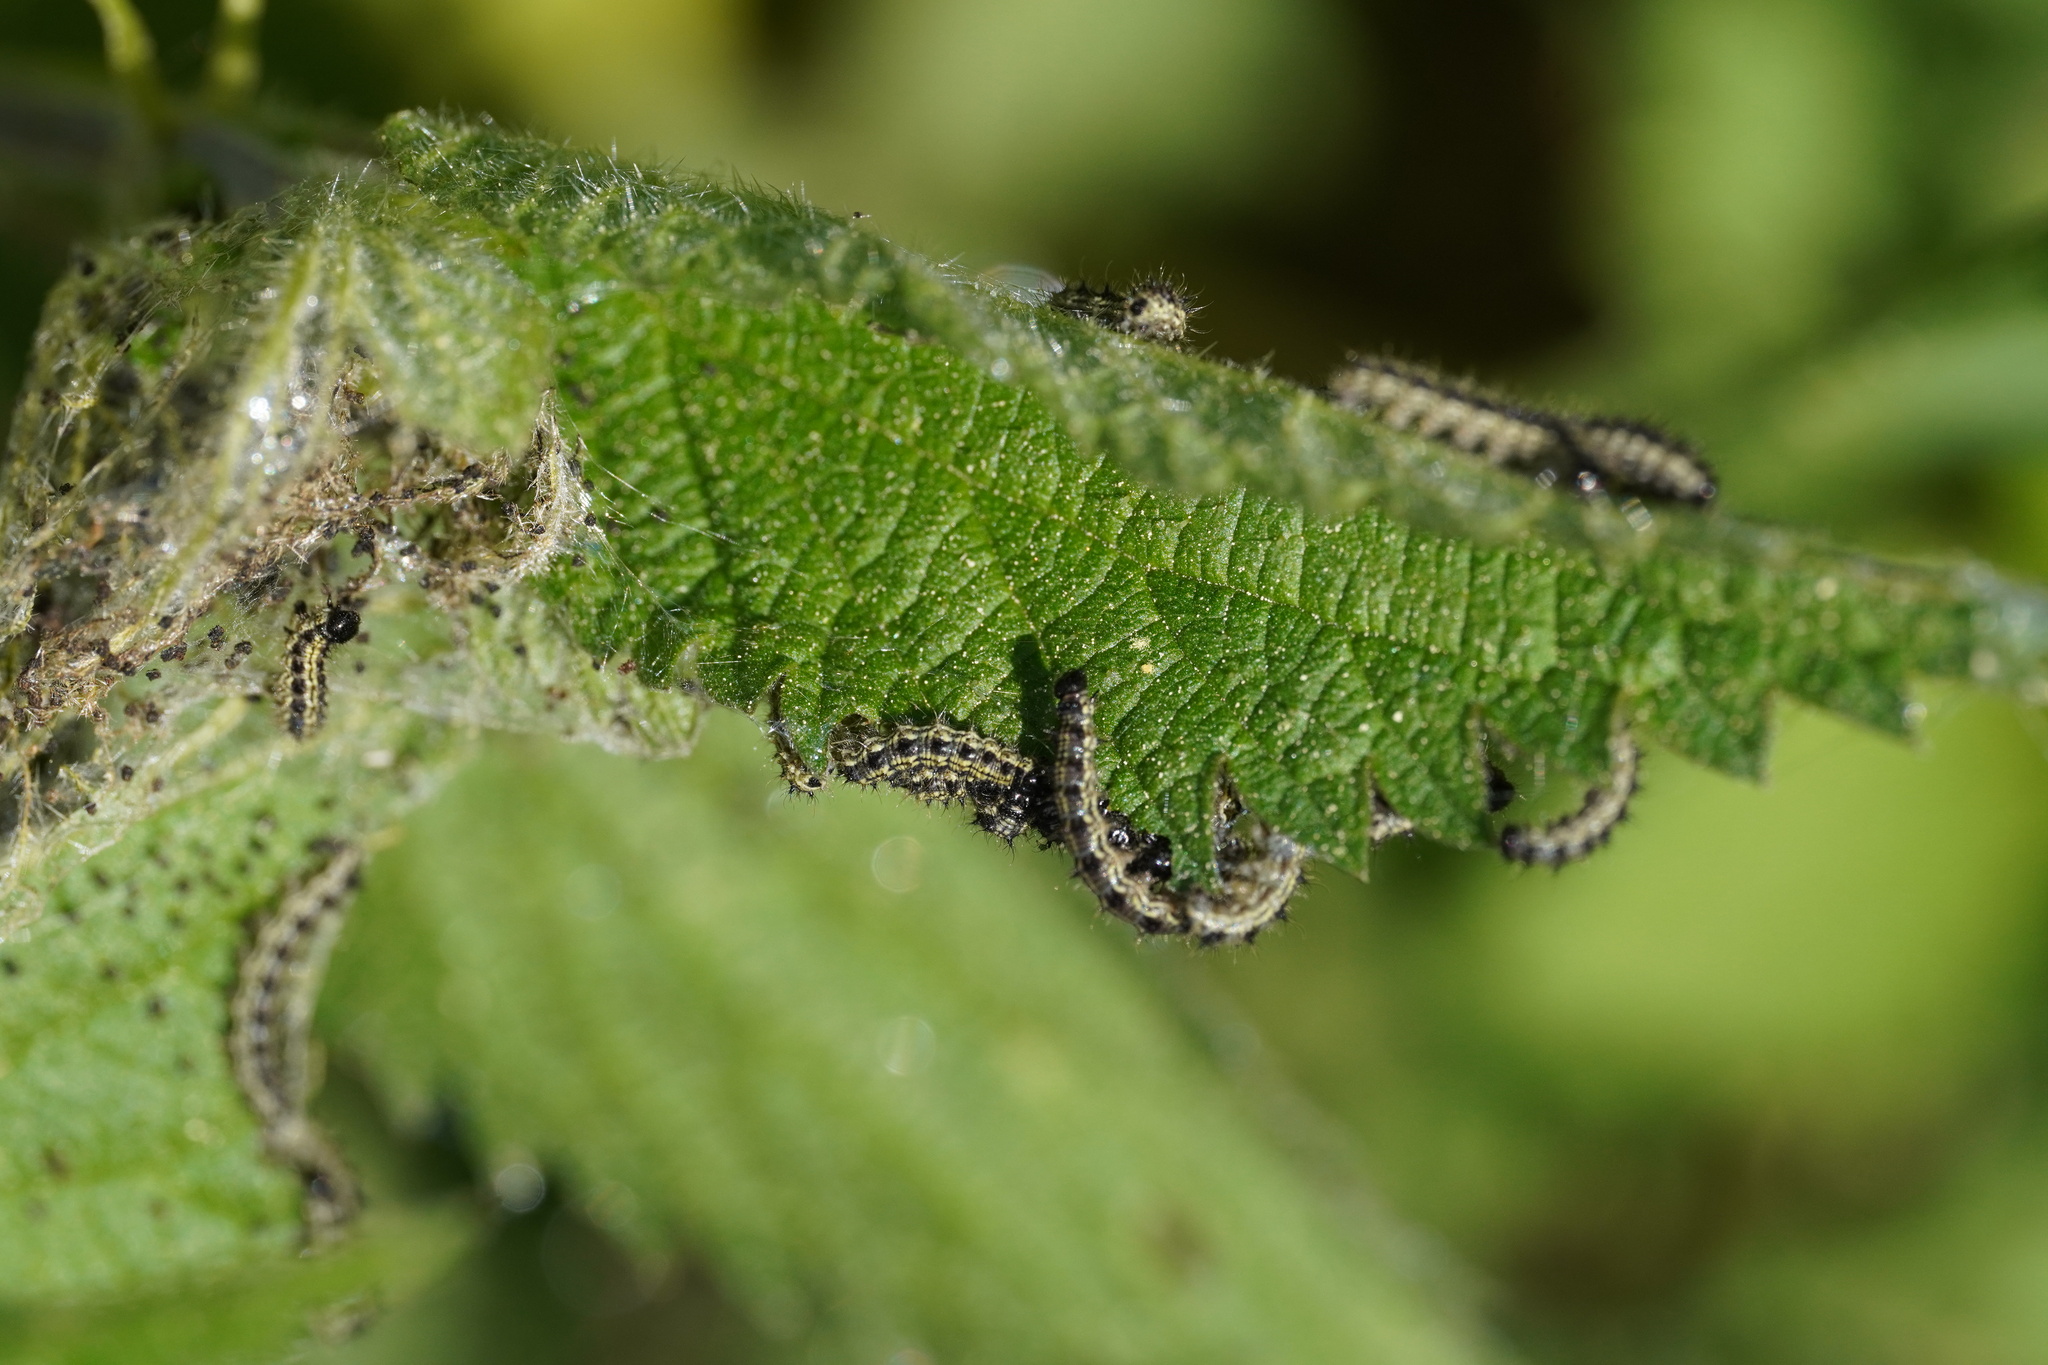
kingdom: Animalia
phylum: Arthropoda
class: Insecta
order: Lepidoptera
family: Nymphalidae
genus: Aglais
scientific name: Aglais urticae
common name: Small tortoiseshell
